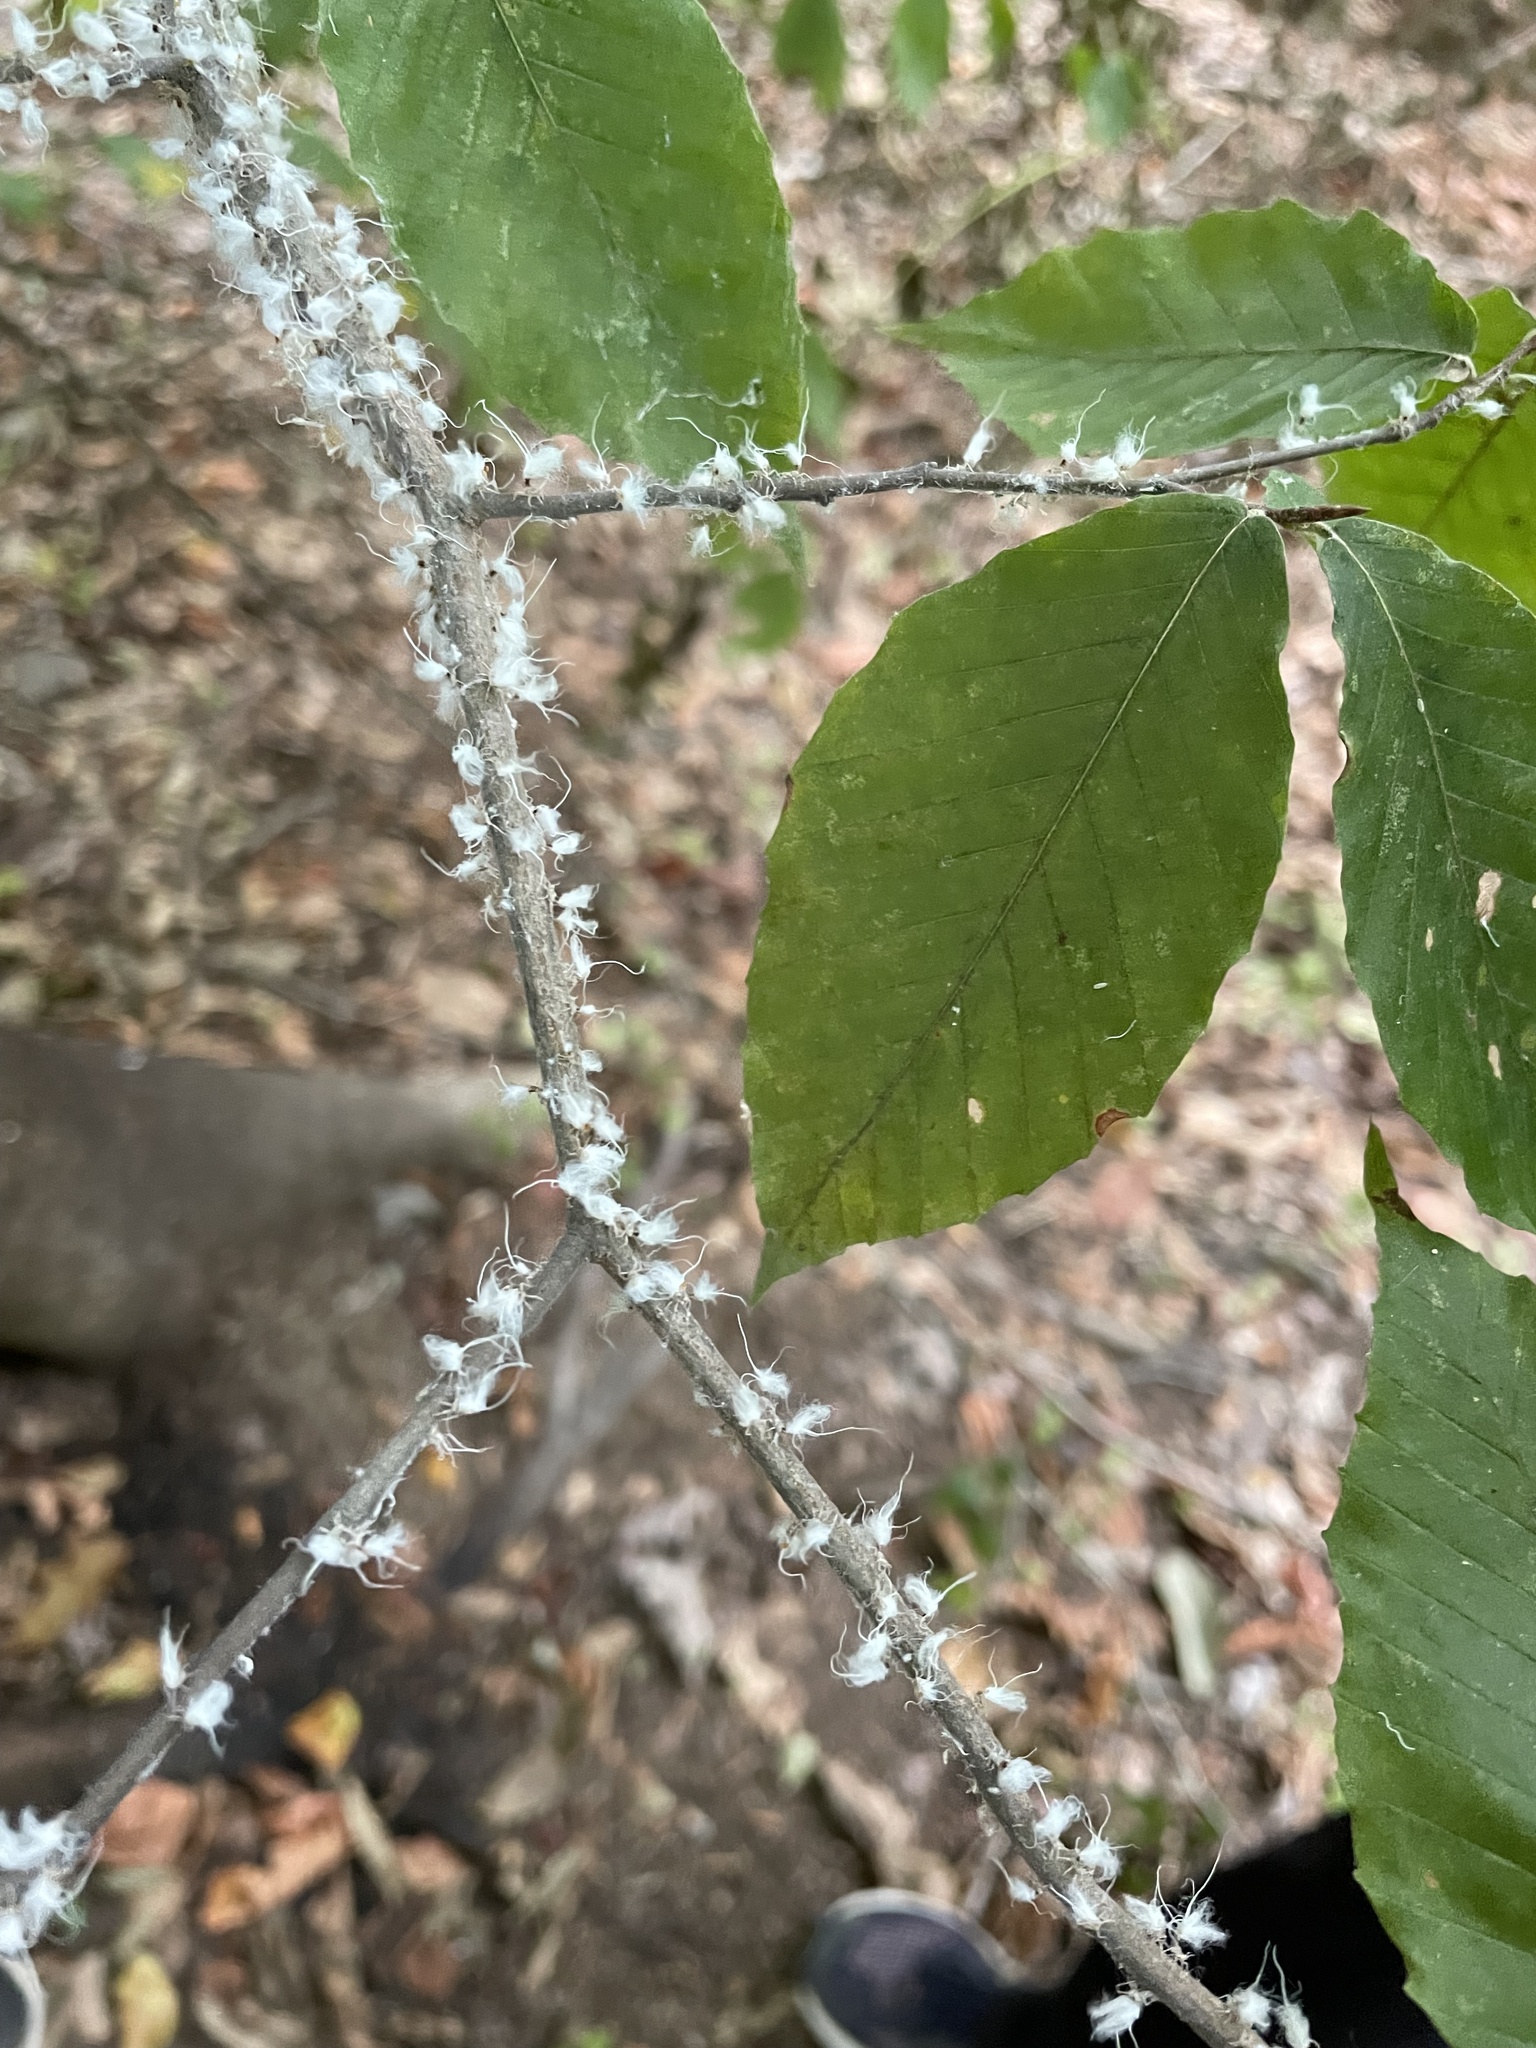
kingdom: Animalia
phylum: Arthropoda
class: Insecta
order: Hemiptera
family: Aphididae
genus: Grylloprociphilus
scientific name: Grylloprociphilus imbricator
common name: Beech blight aphid
